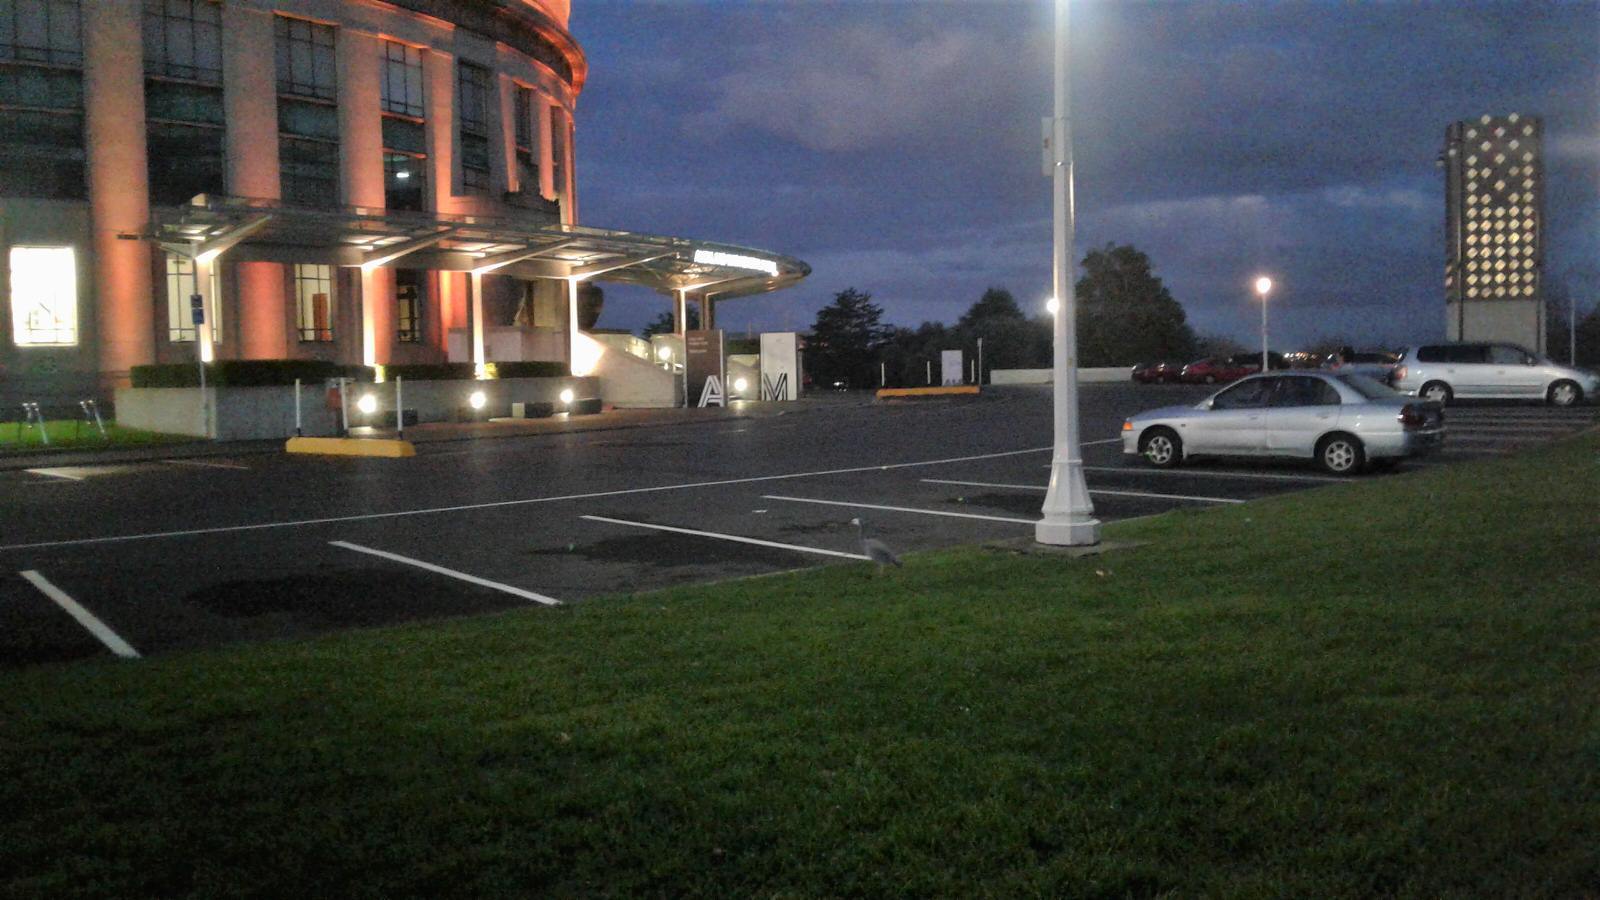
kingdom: Animalia
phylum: Chordata
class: Aves
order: Pelecaniformes
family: Ardeidae
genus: Egretta
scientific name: Egretta novaehollandiae
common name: White-faced heron
